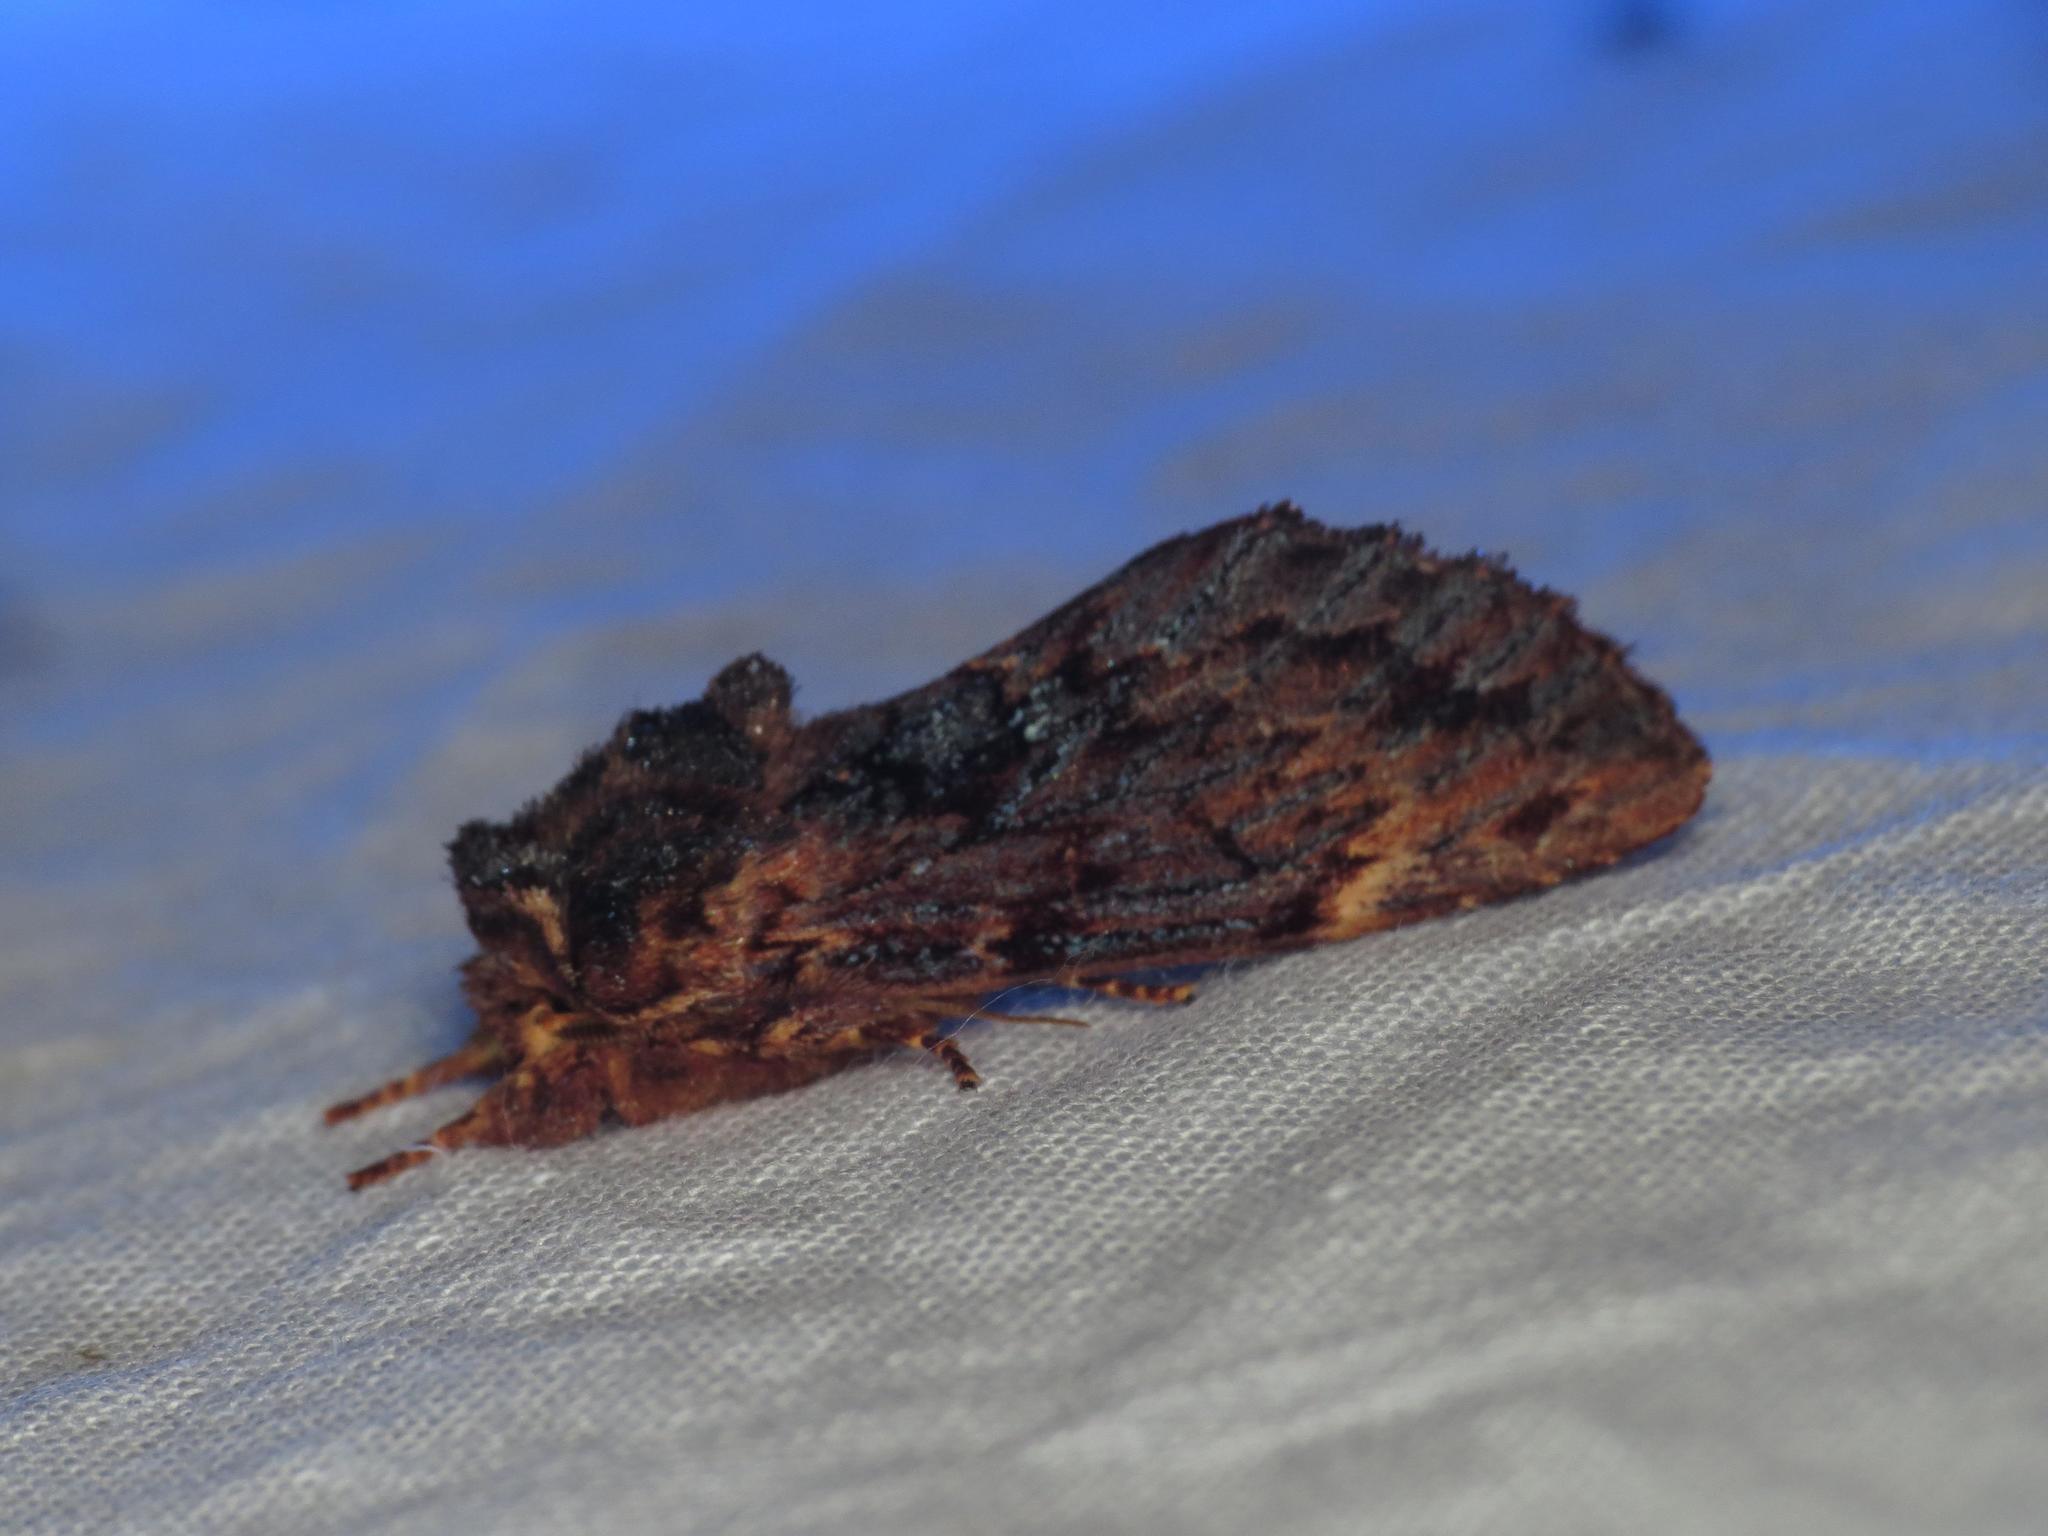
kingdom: Animalia
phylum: Arthropoda
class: Insecta
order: Lepidoptera
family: Notodontidae
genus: Sorama
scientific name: Sorama bicolor
